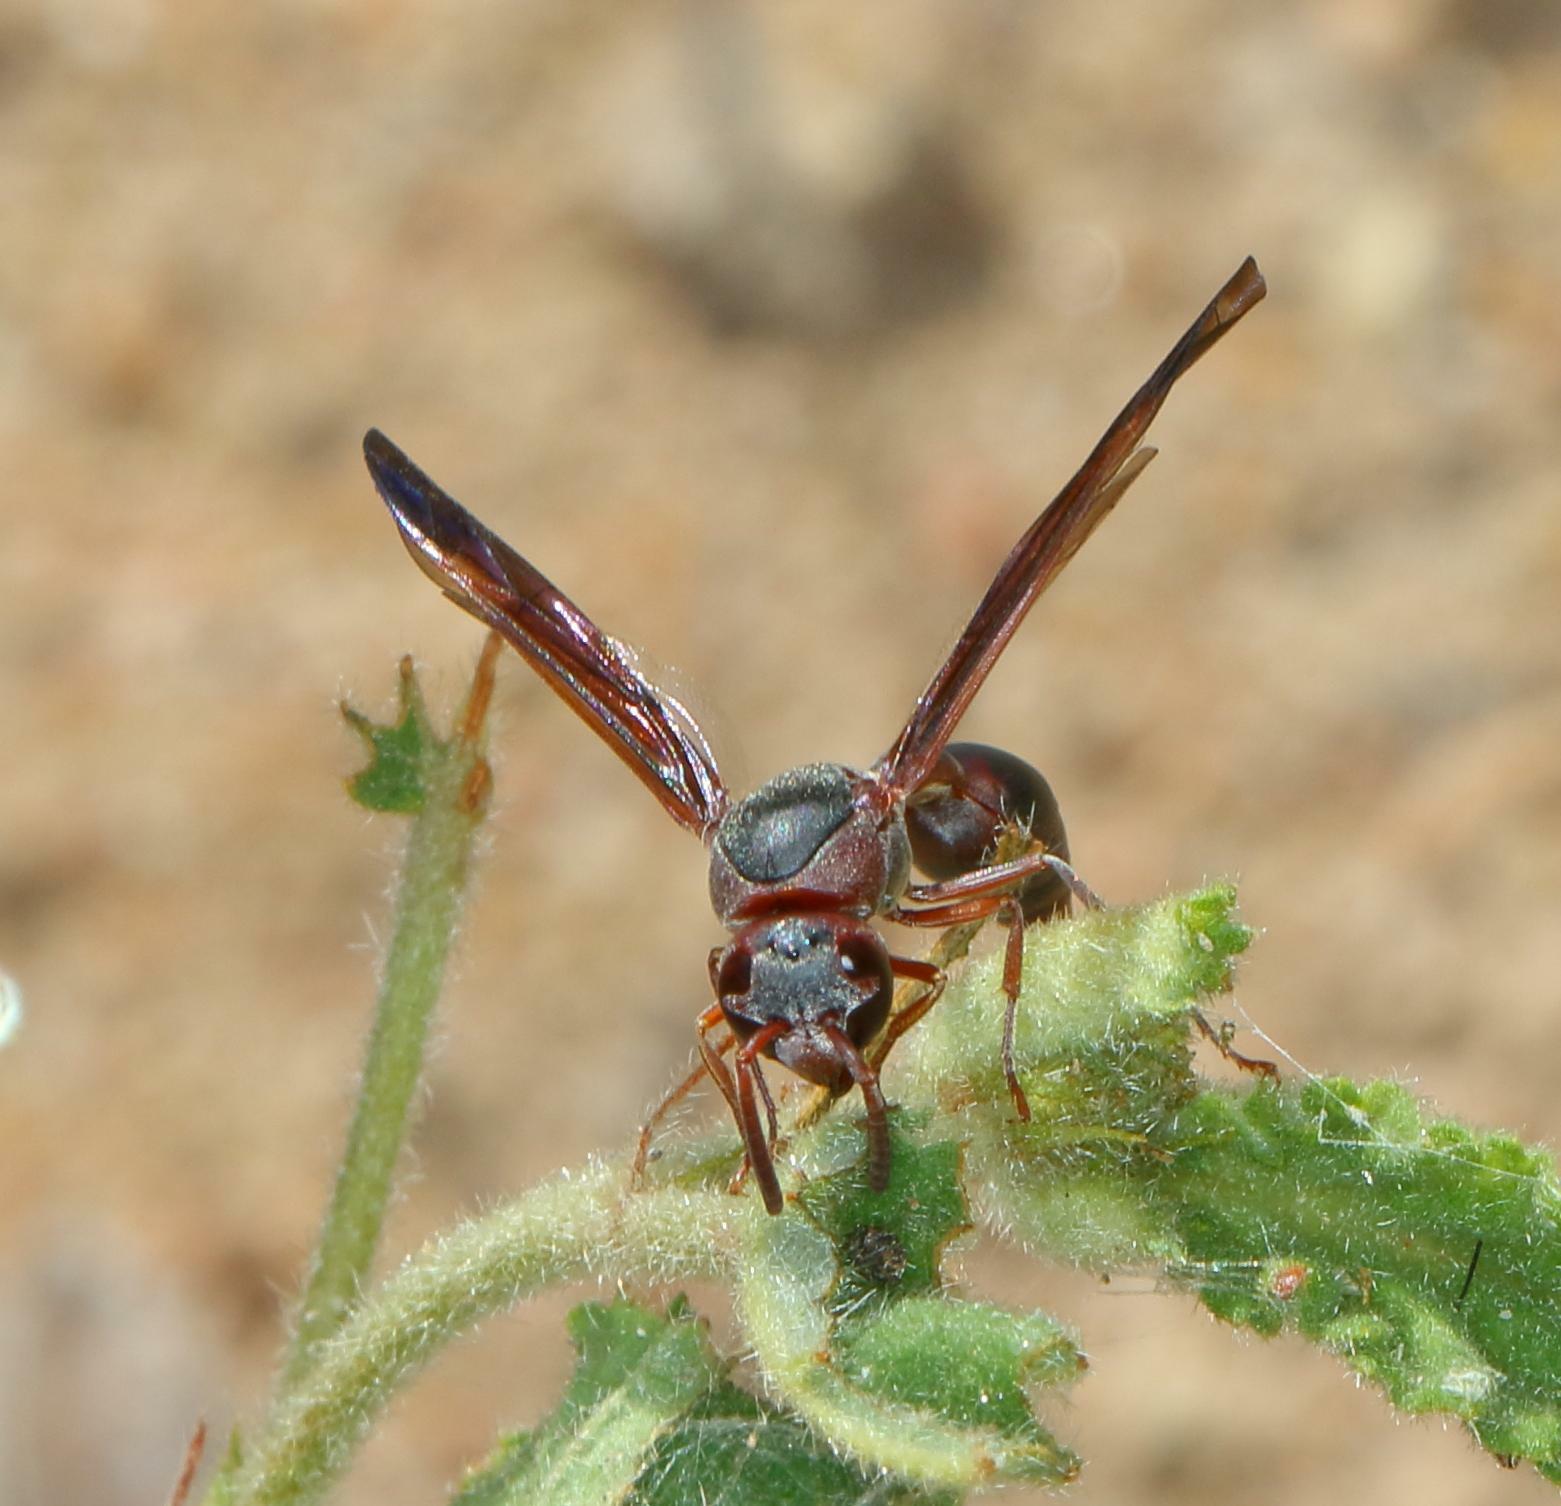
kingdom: Animalia
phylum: Arthropoda
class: Insecta
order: Hymenoptera
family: Eumenidae
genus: Pareumenes
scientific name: Pareumenes sansibaricus
